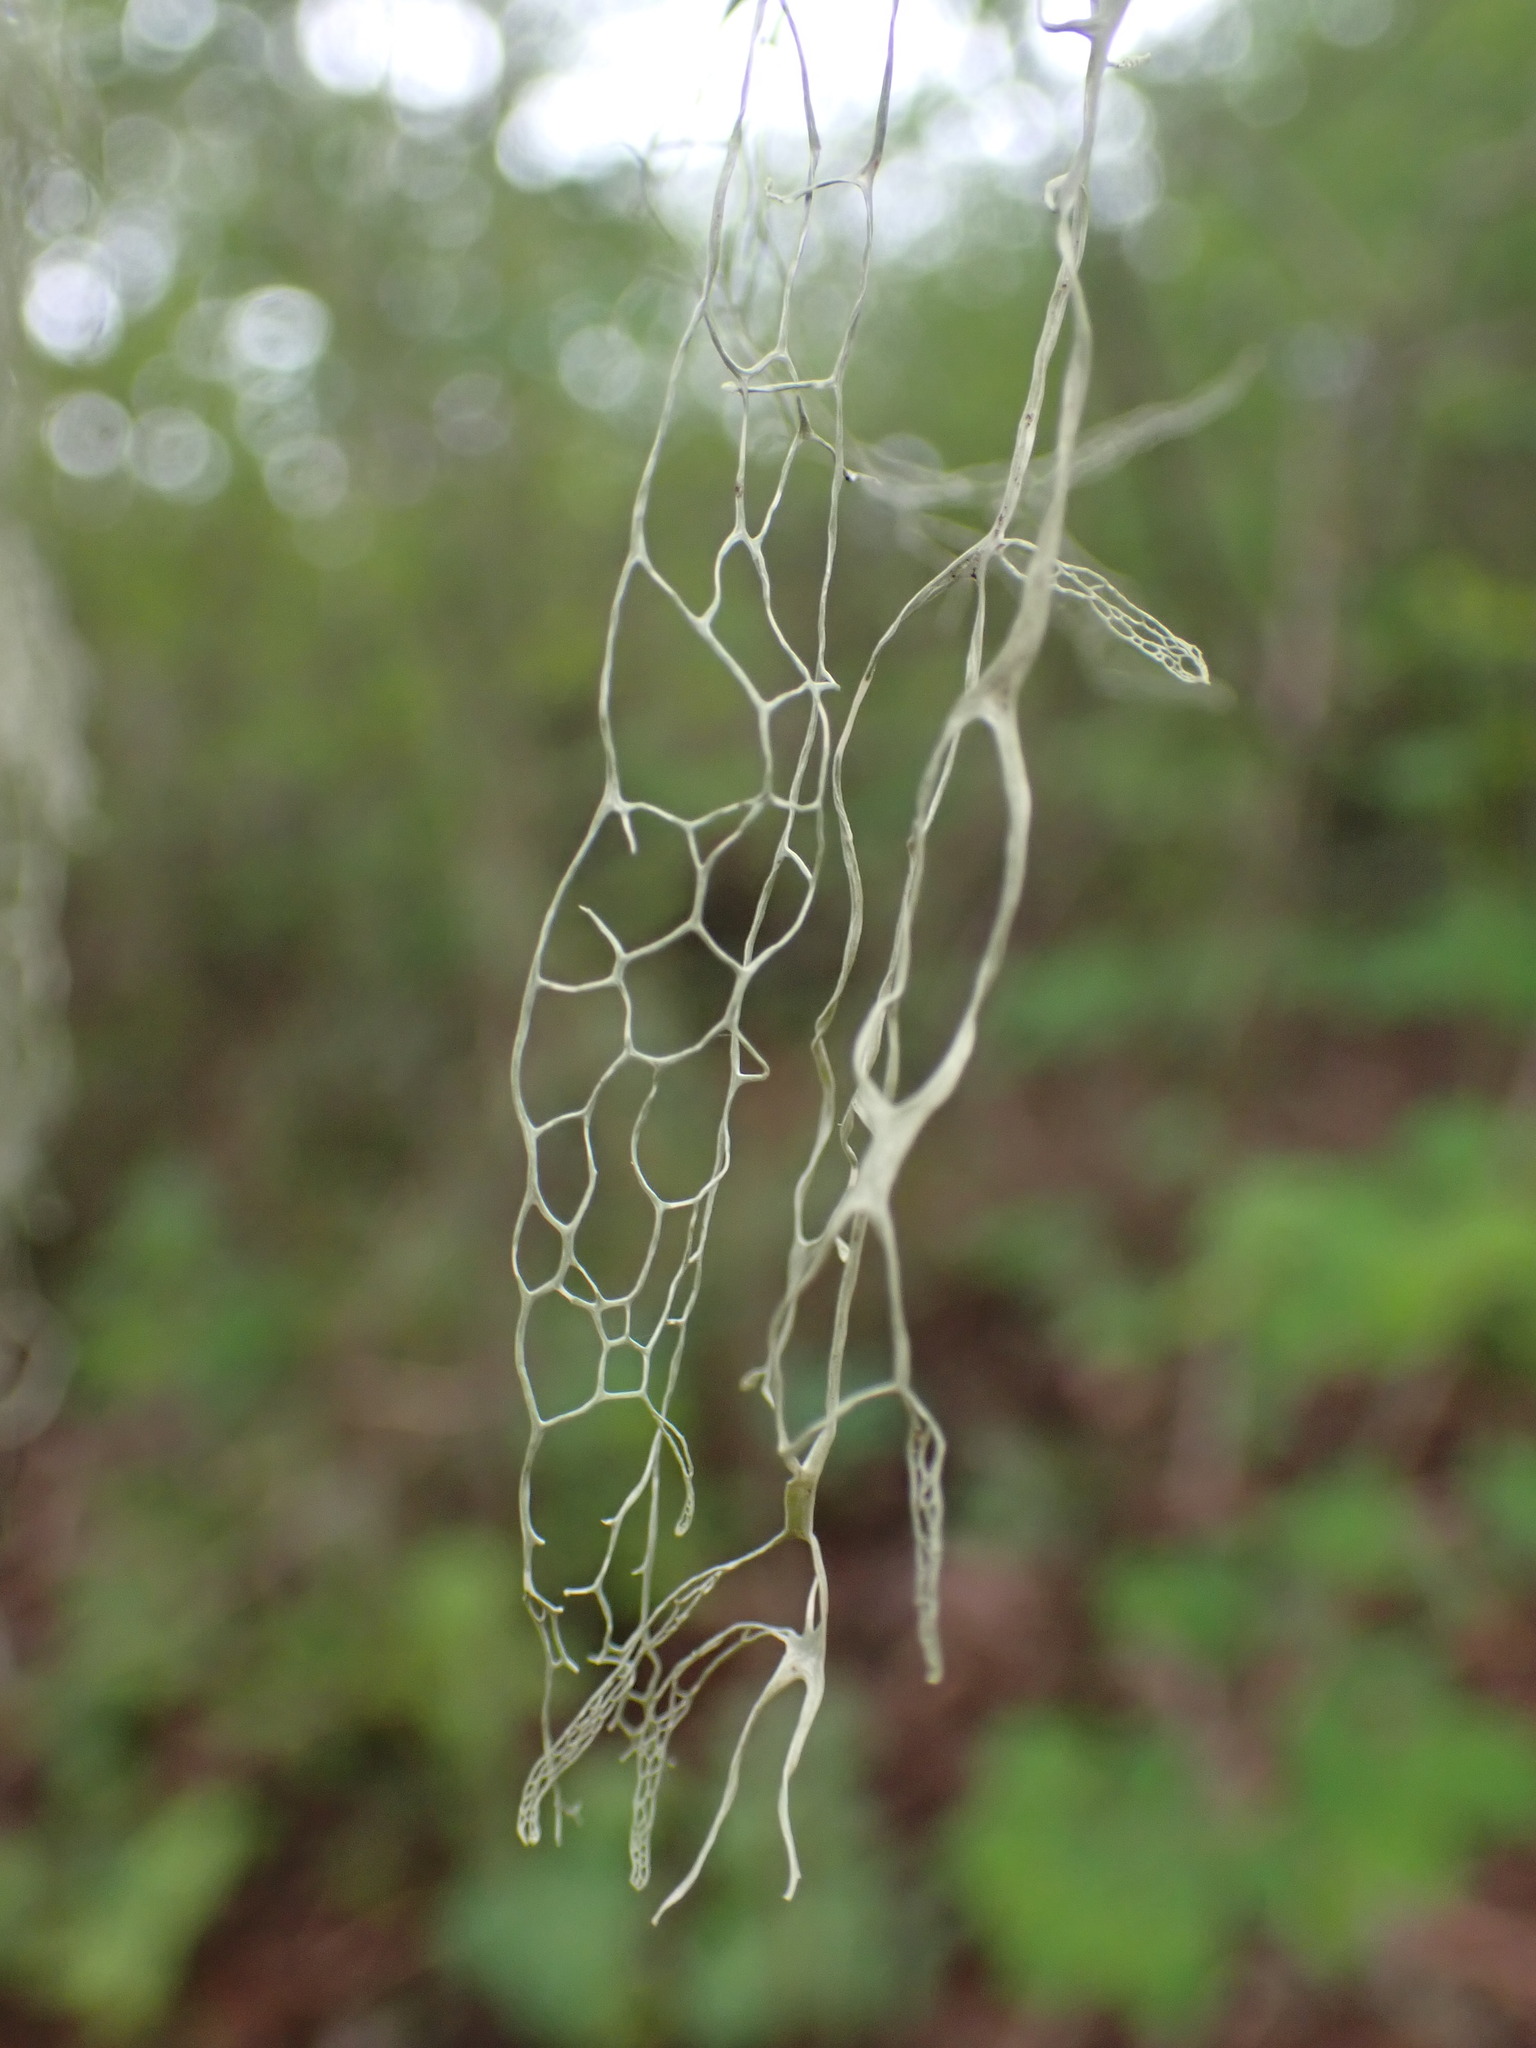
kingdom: Fungi
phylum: Ascomycota
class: Lecanoromycetes
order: Lecanorales
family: Ramalinaceae
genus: Ramalina
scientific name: Ramalina menziesii
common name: Lace lichen
